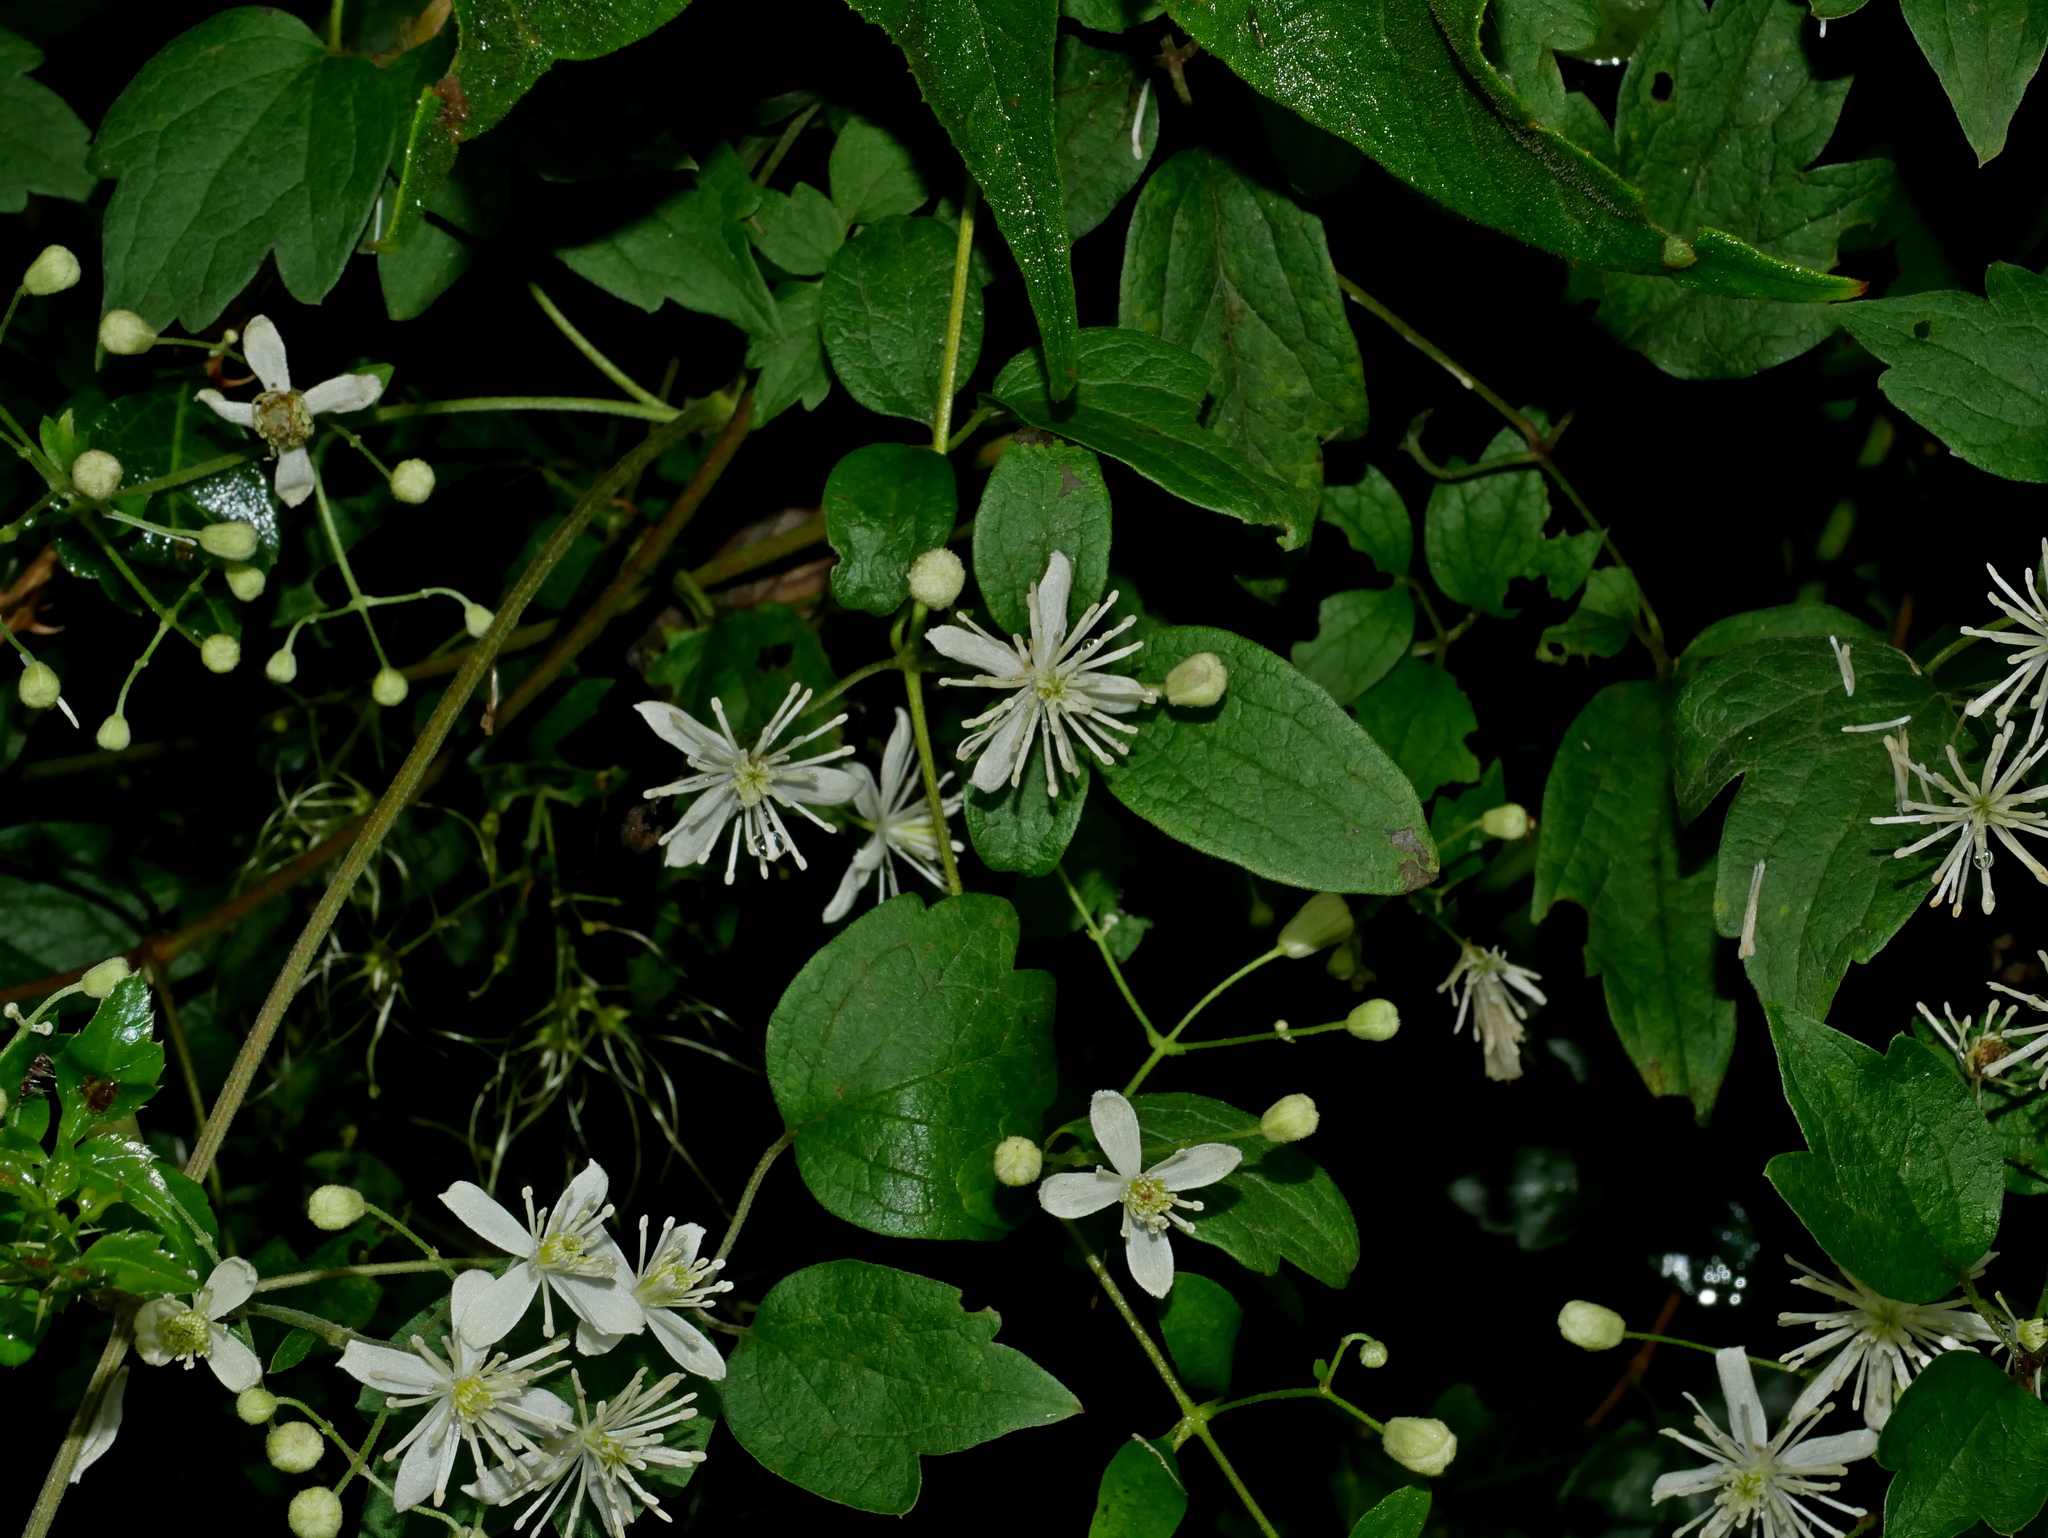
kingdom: Plantae
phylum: Tracheophyta
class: Magnoliopsida
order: Ranunculales
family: Ranunculaceae
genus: Clematis
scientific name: Clematis grata
